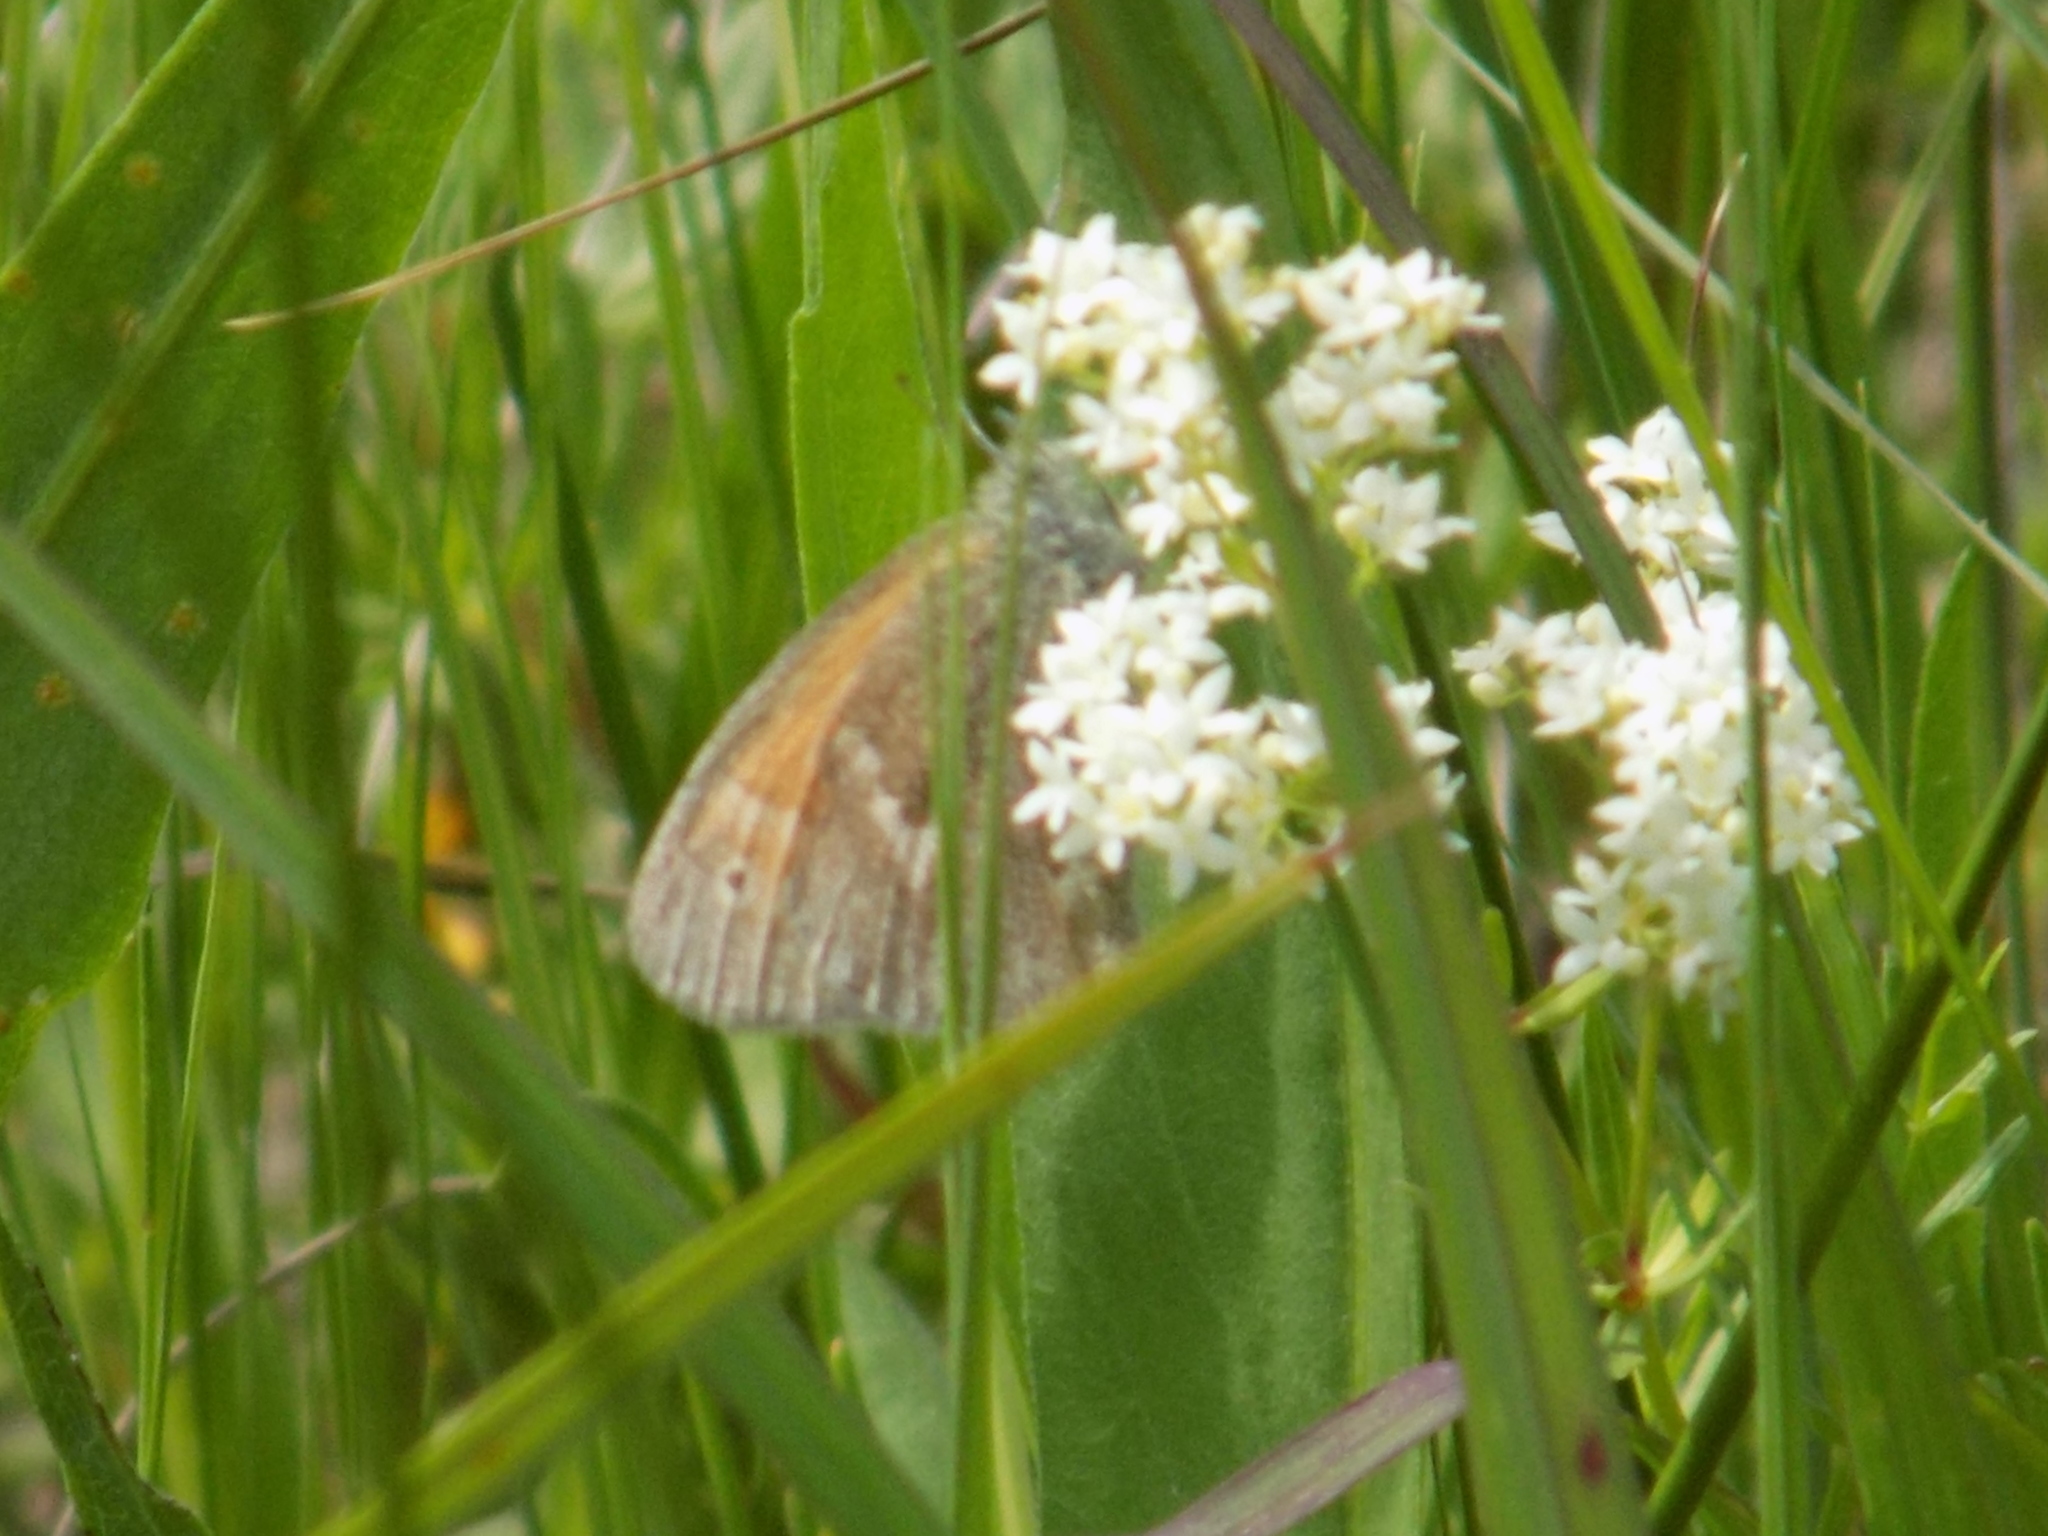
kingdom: Animalia
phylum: Arthropoda
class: Insecta
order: Lepidoptera
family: Nymphalidae
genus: Coenonympha
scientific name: Coenonympha california
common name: Common ringlet
